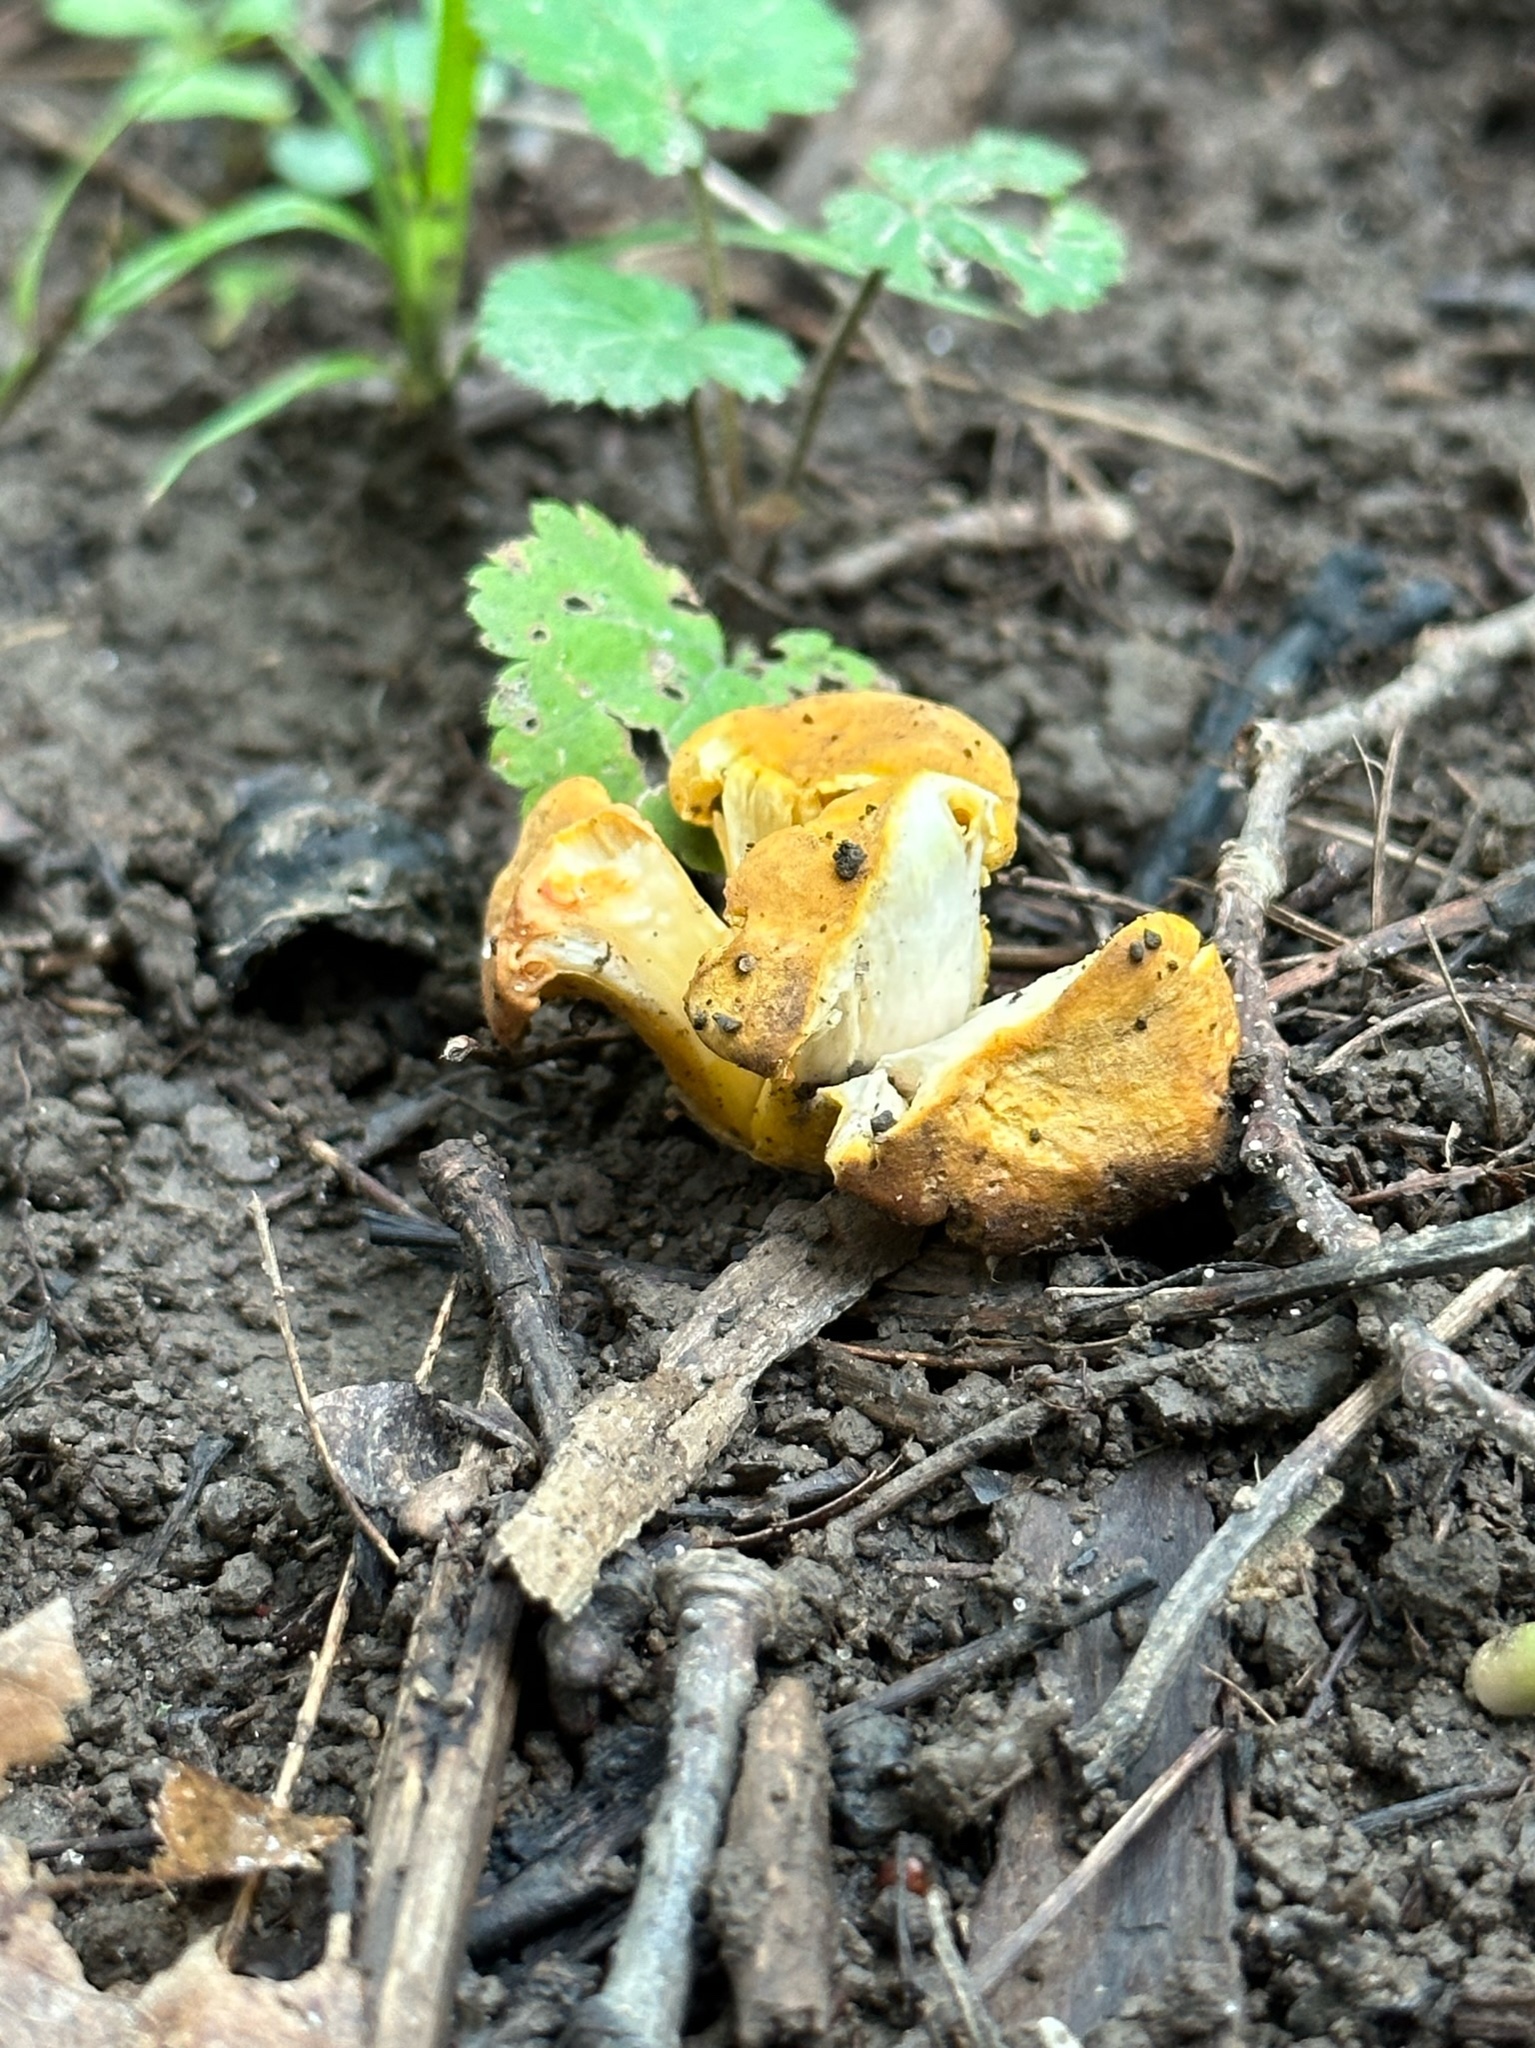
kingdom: Fungi
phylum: Basidiomycota
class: Agaricomycetes
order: Cantharellales
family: Hydnaceae
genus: Cantharellus
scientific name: Cantharellus chicagoensis
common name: Chicago chanterelle
